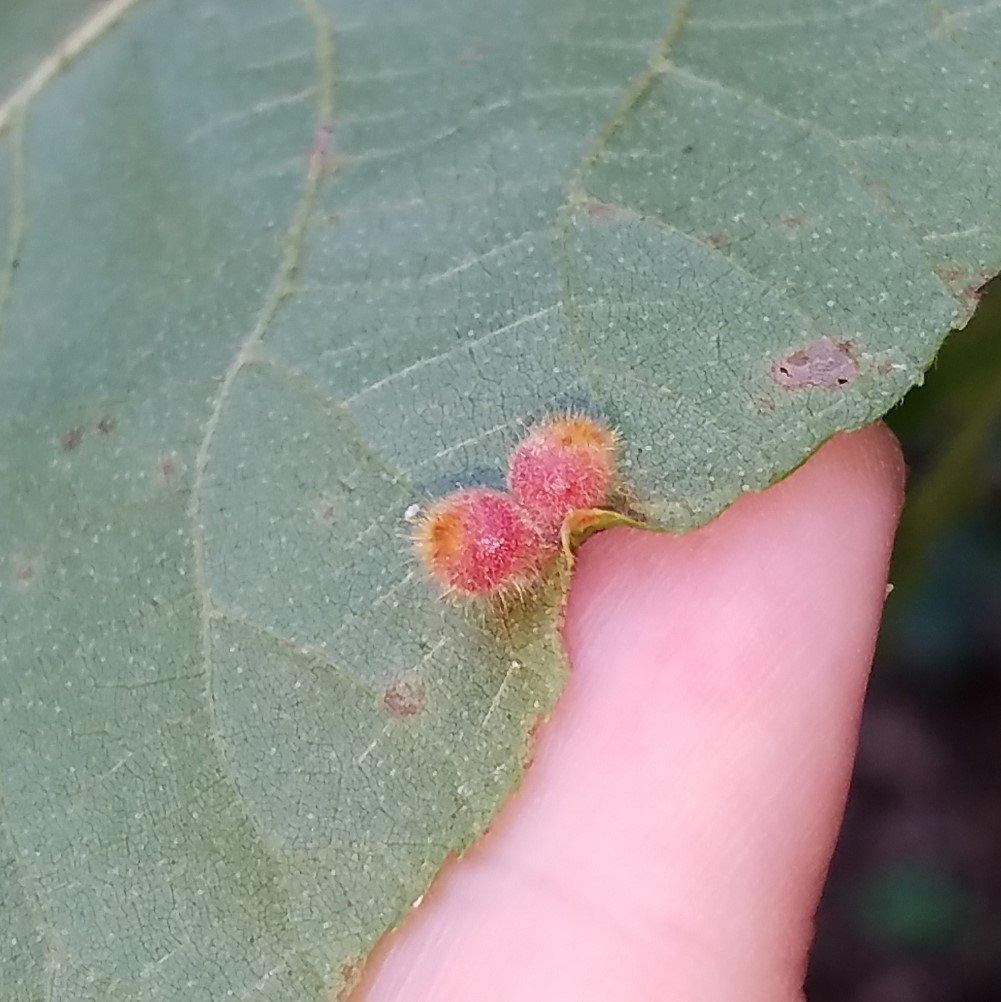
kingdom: Animalia
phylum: Arthropoda
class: Insecta
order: Diptera
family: Cecidomyiidae
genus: Caryomyia
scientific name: Caryomyia hirtidolium
